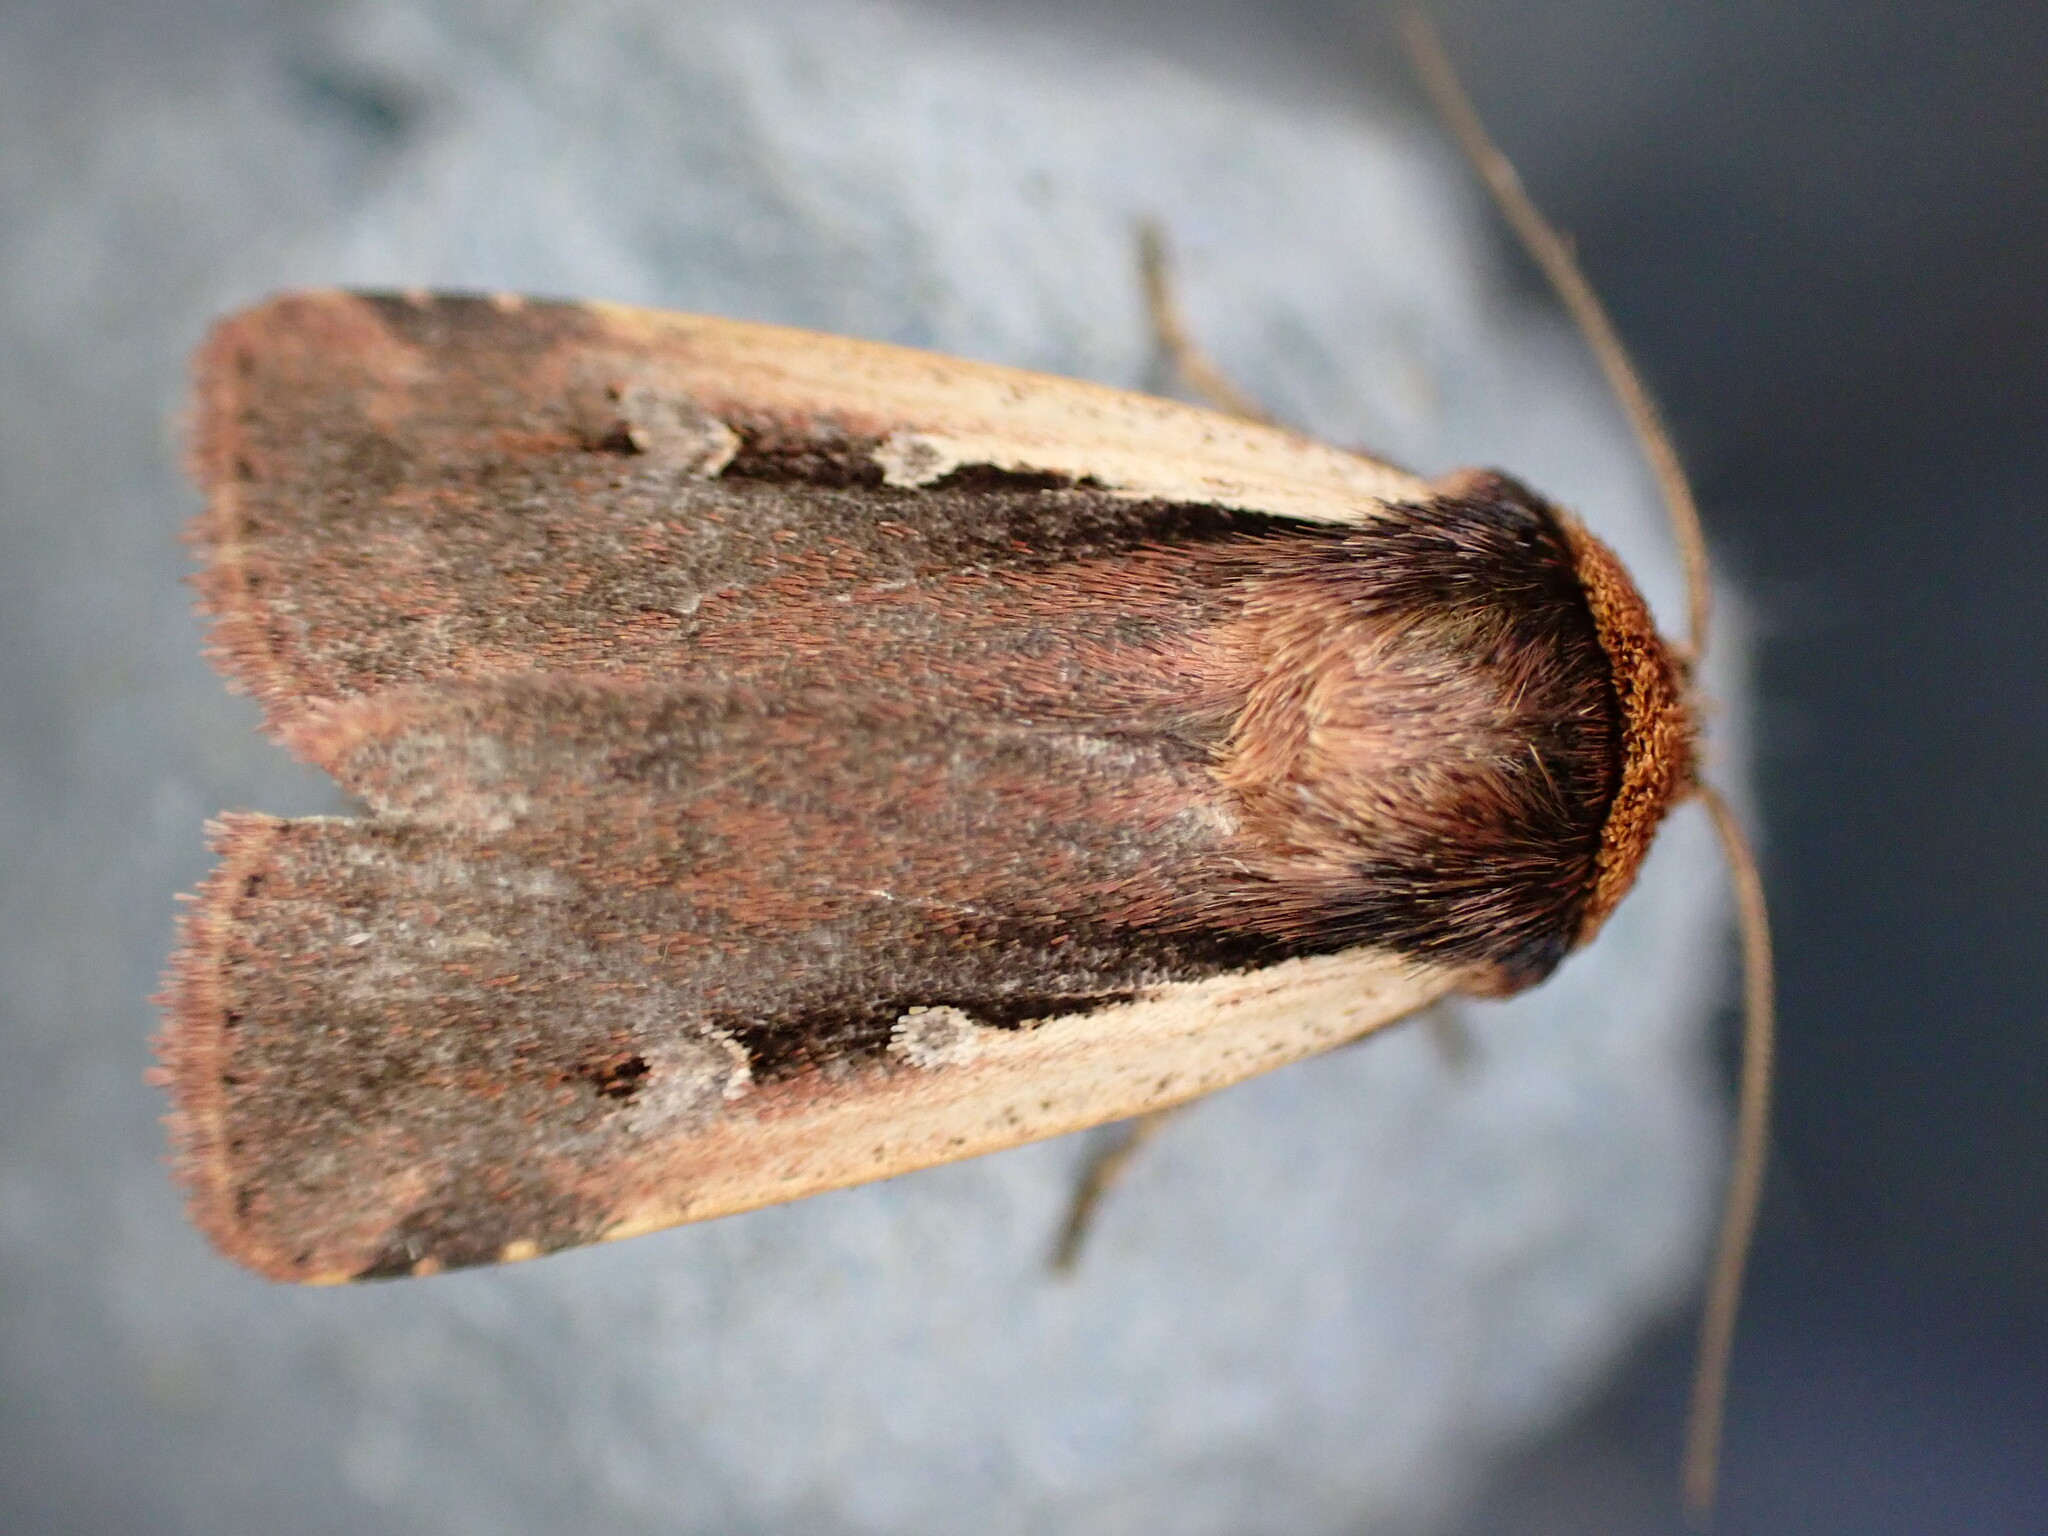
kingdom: Animalia
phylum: Arthropoda
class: Insecta
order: Lepidoptera
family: Noctuidae
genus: Ochropleura
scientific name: Ochropleura plecta
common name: Flame shoulder
